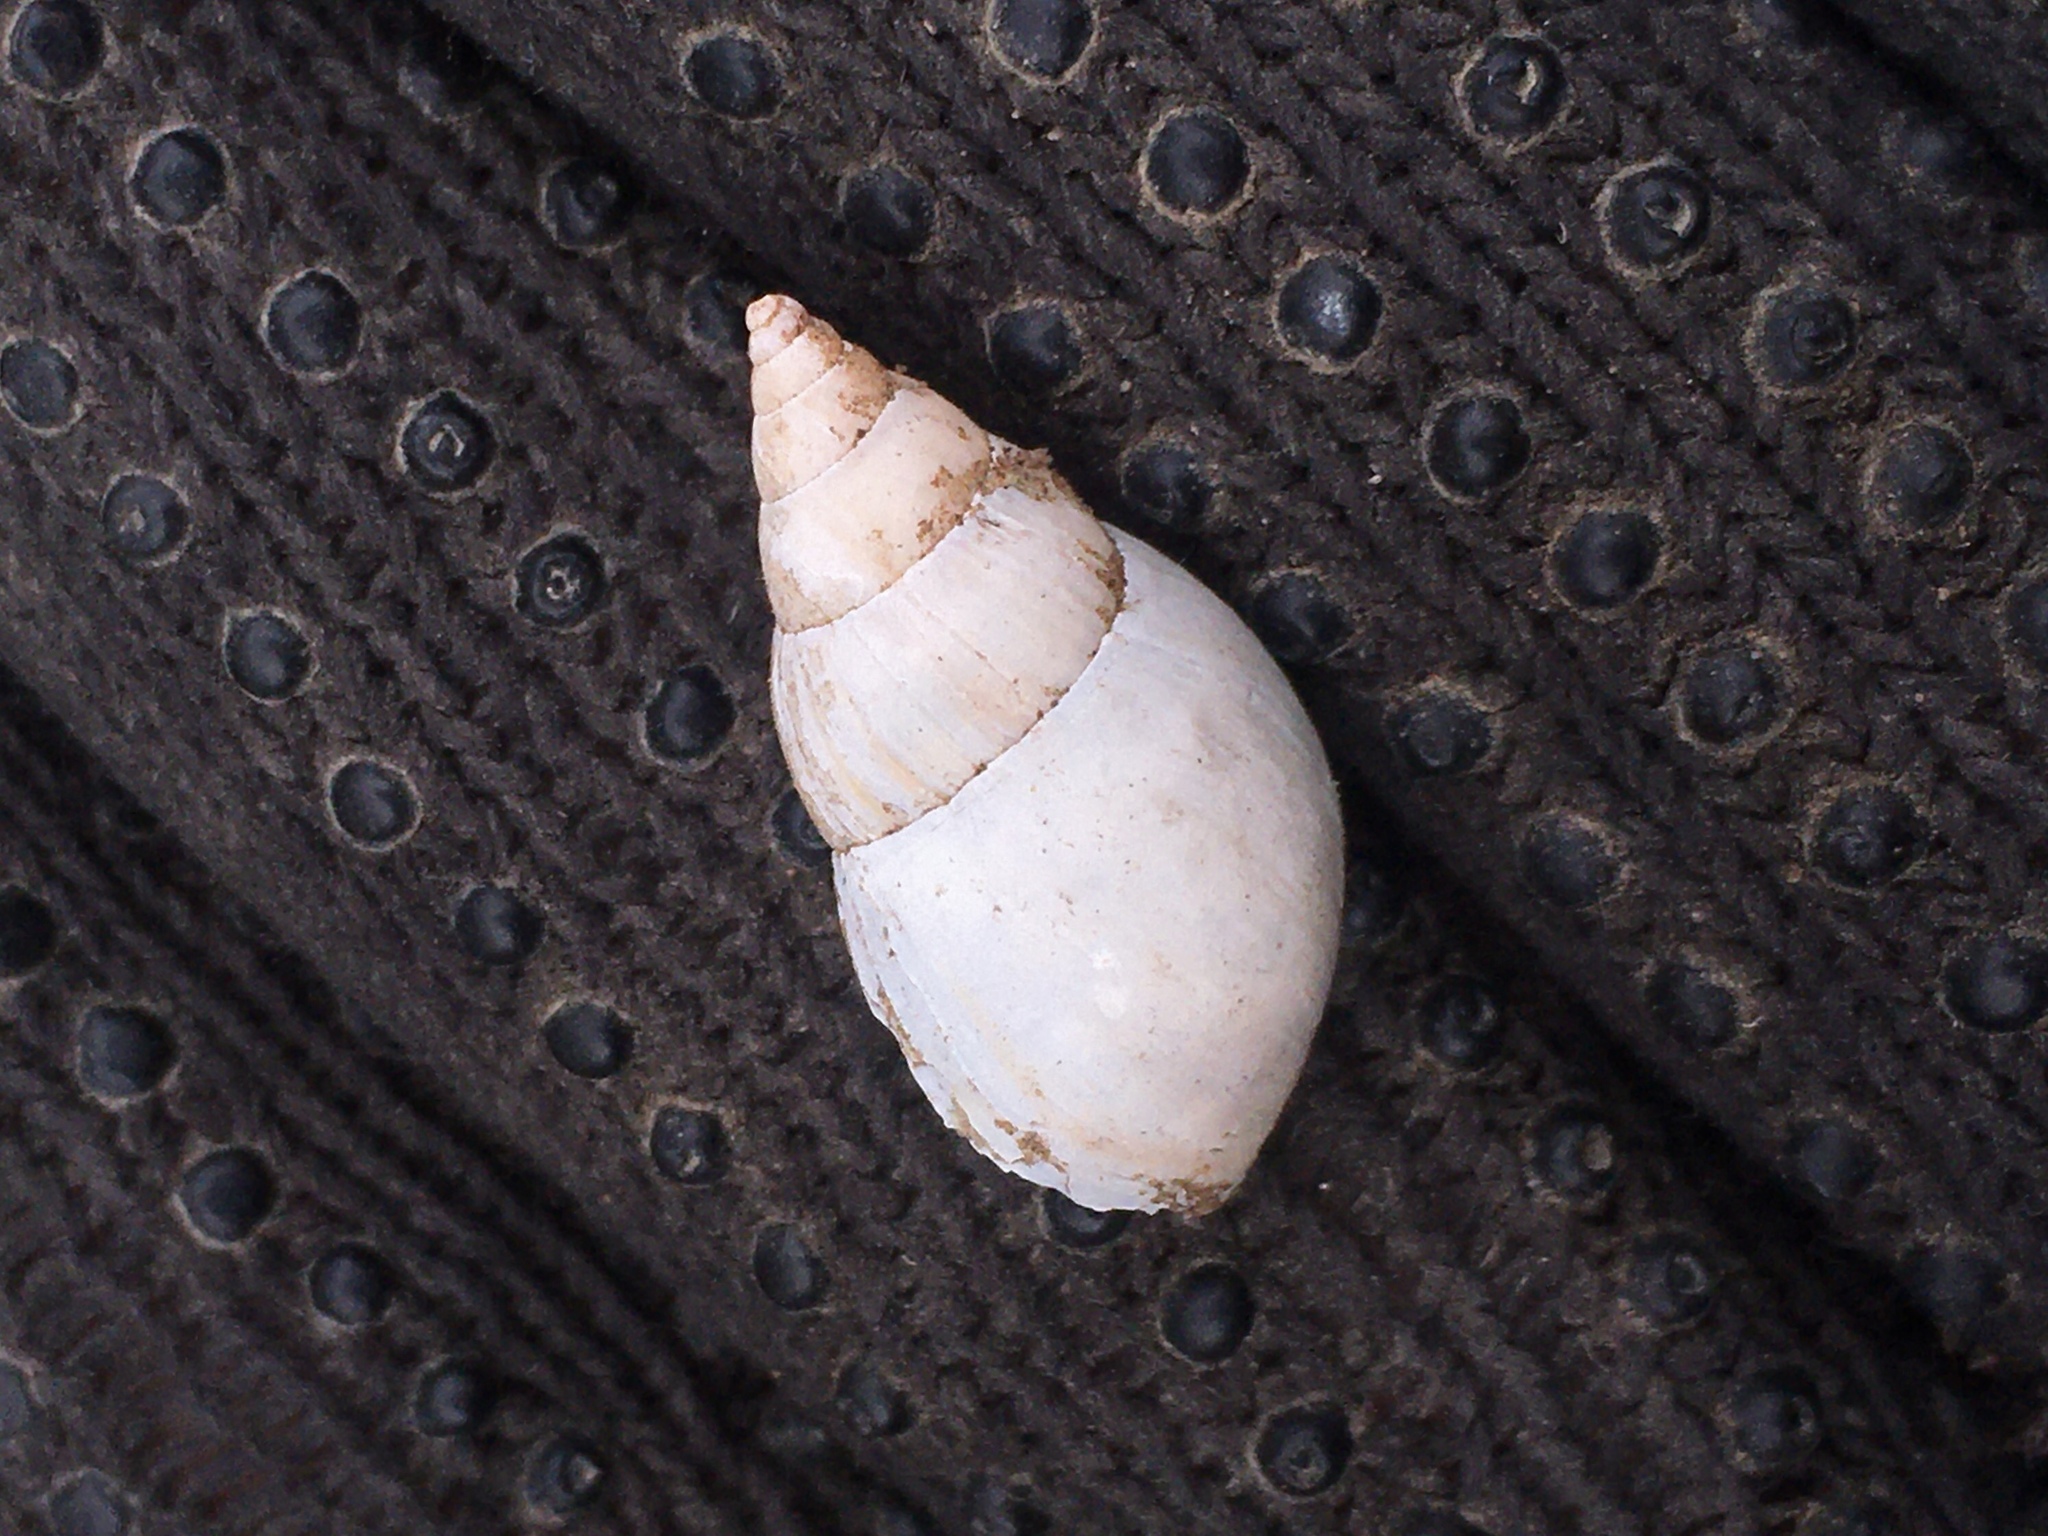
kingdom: Animalia
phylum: Mollusca
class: Gastropoda
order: Stylommatophora
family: Bulimulidae
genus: Bulimulus
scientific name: Bulimulus bonariensis
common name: Snail
